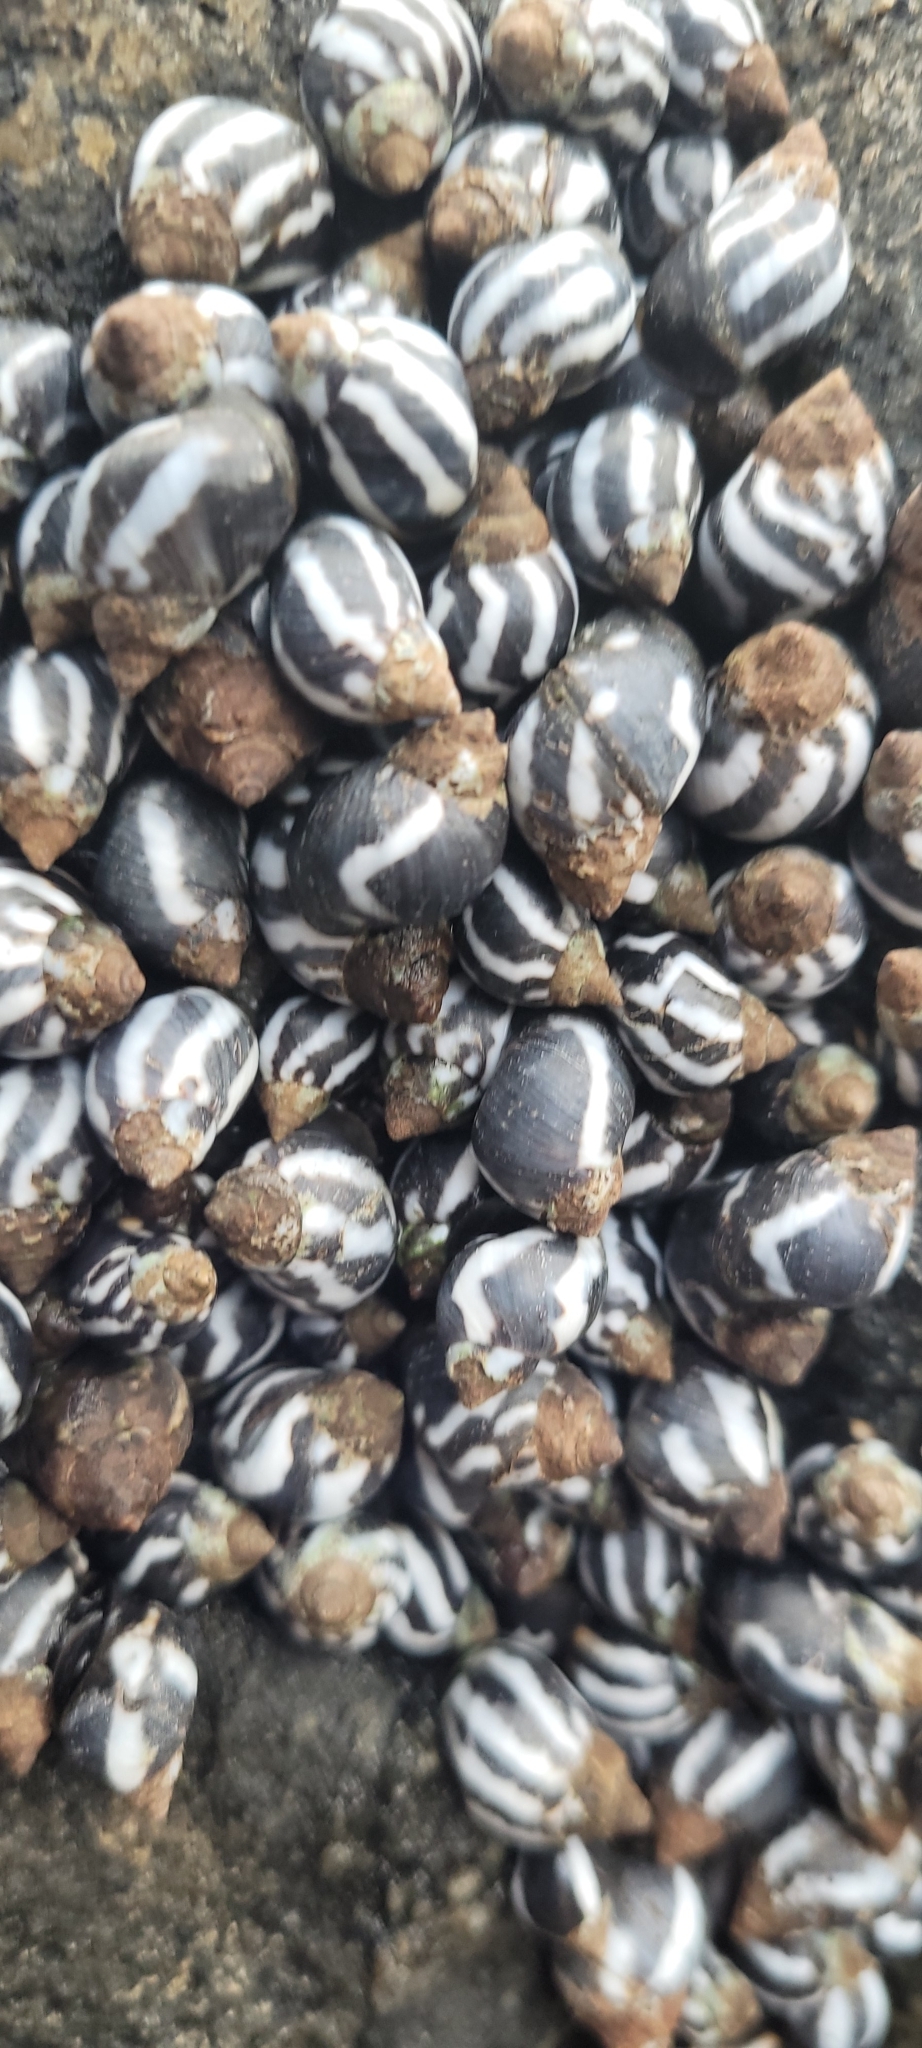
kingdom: Animalia
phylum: Mollusca
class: Gastropoda
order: Littorinimorpha
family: Littorinidae
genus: Echinolittorina
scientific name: Echinolittorina peruviana
